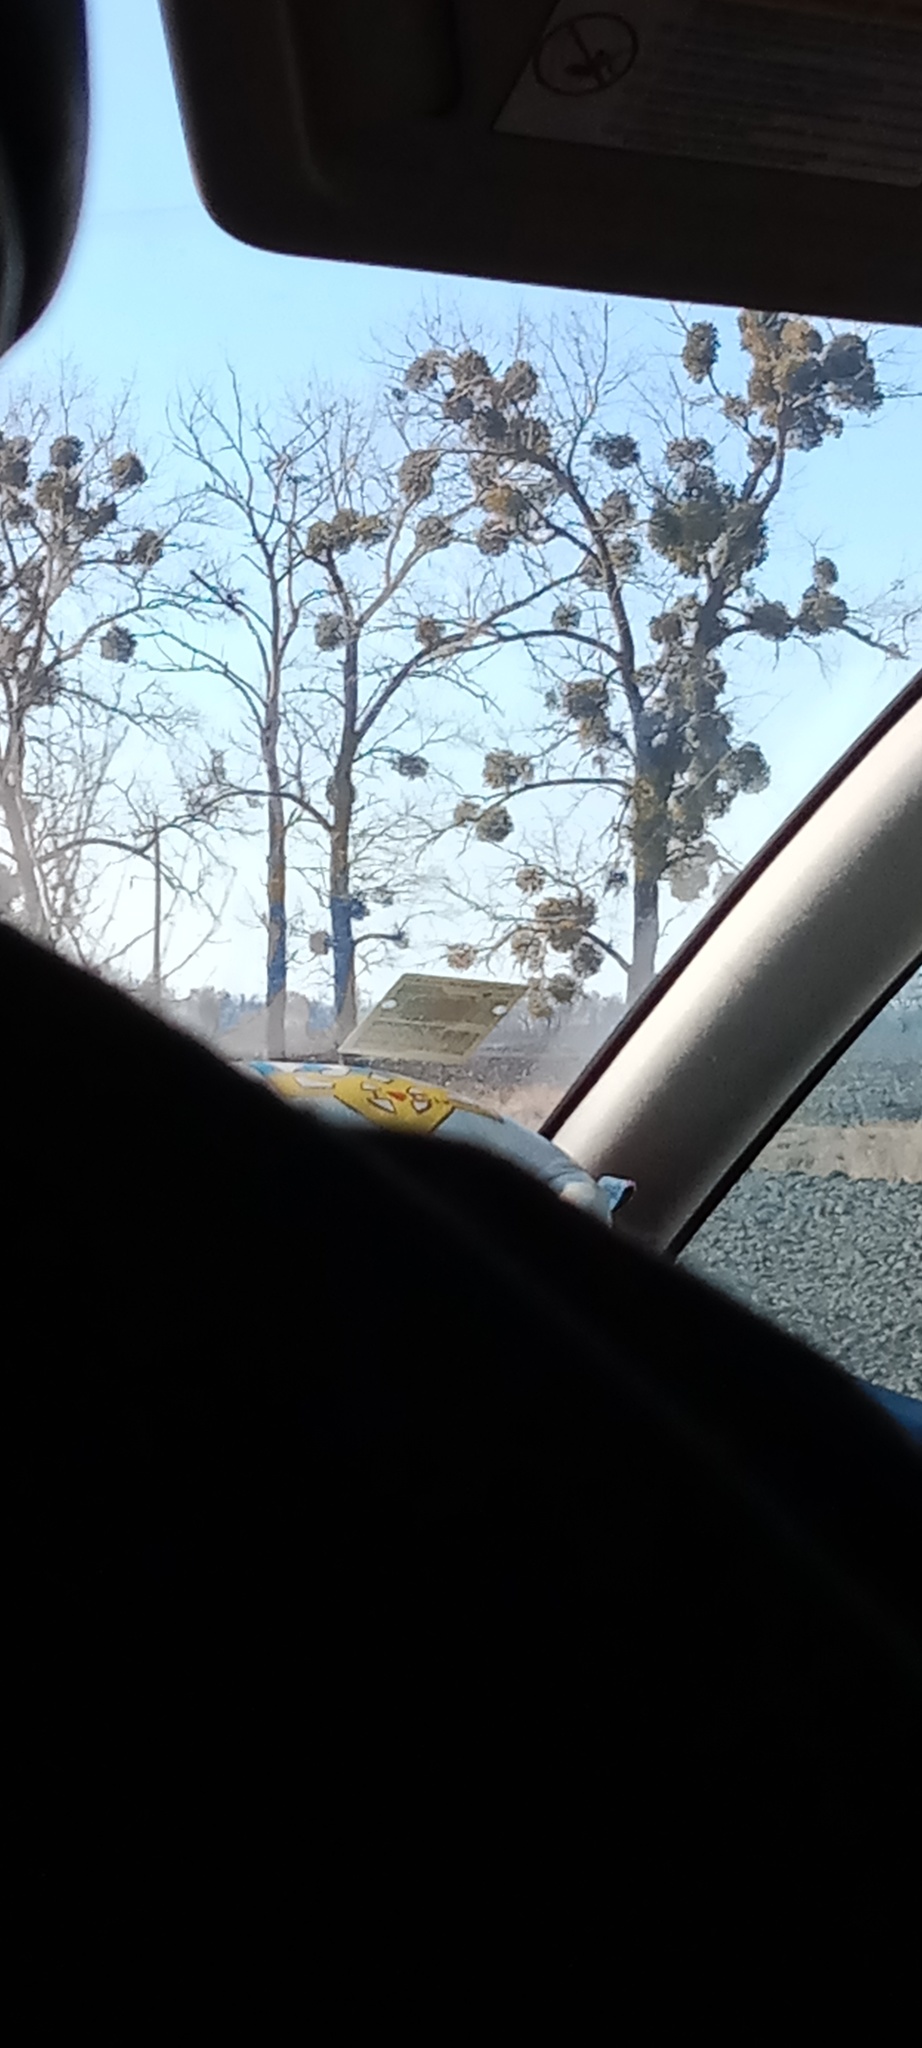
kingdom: Plantae
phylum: Tracheophyta
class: Magnoliopsida
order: Santalales
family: Viscaceae
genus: Viscum
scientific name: Viscum album
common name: Mistletoe
